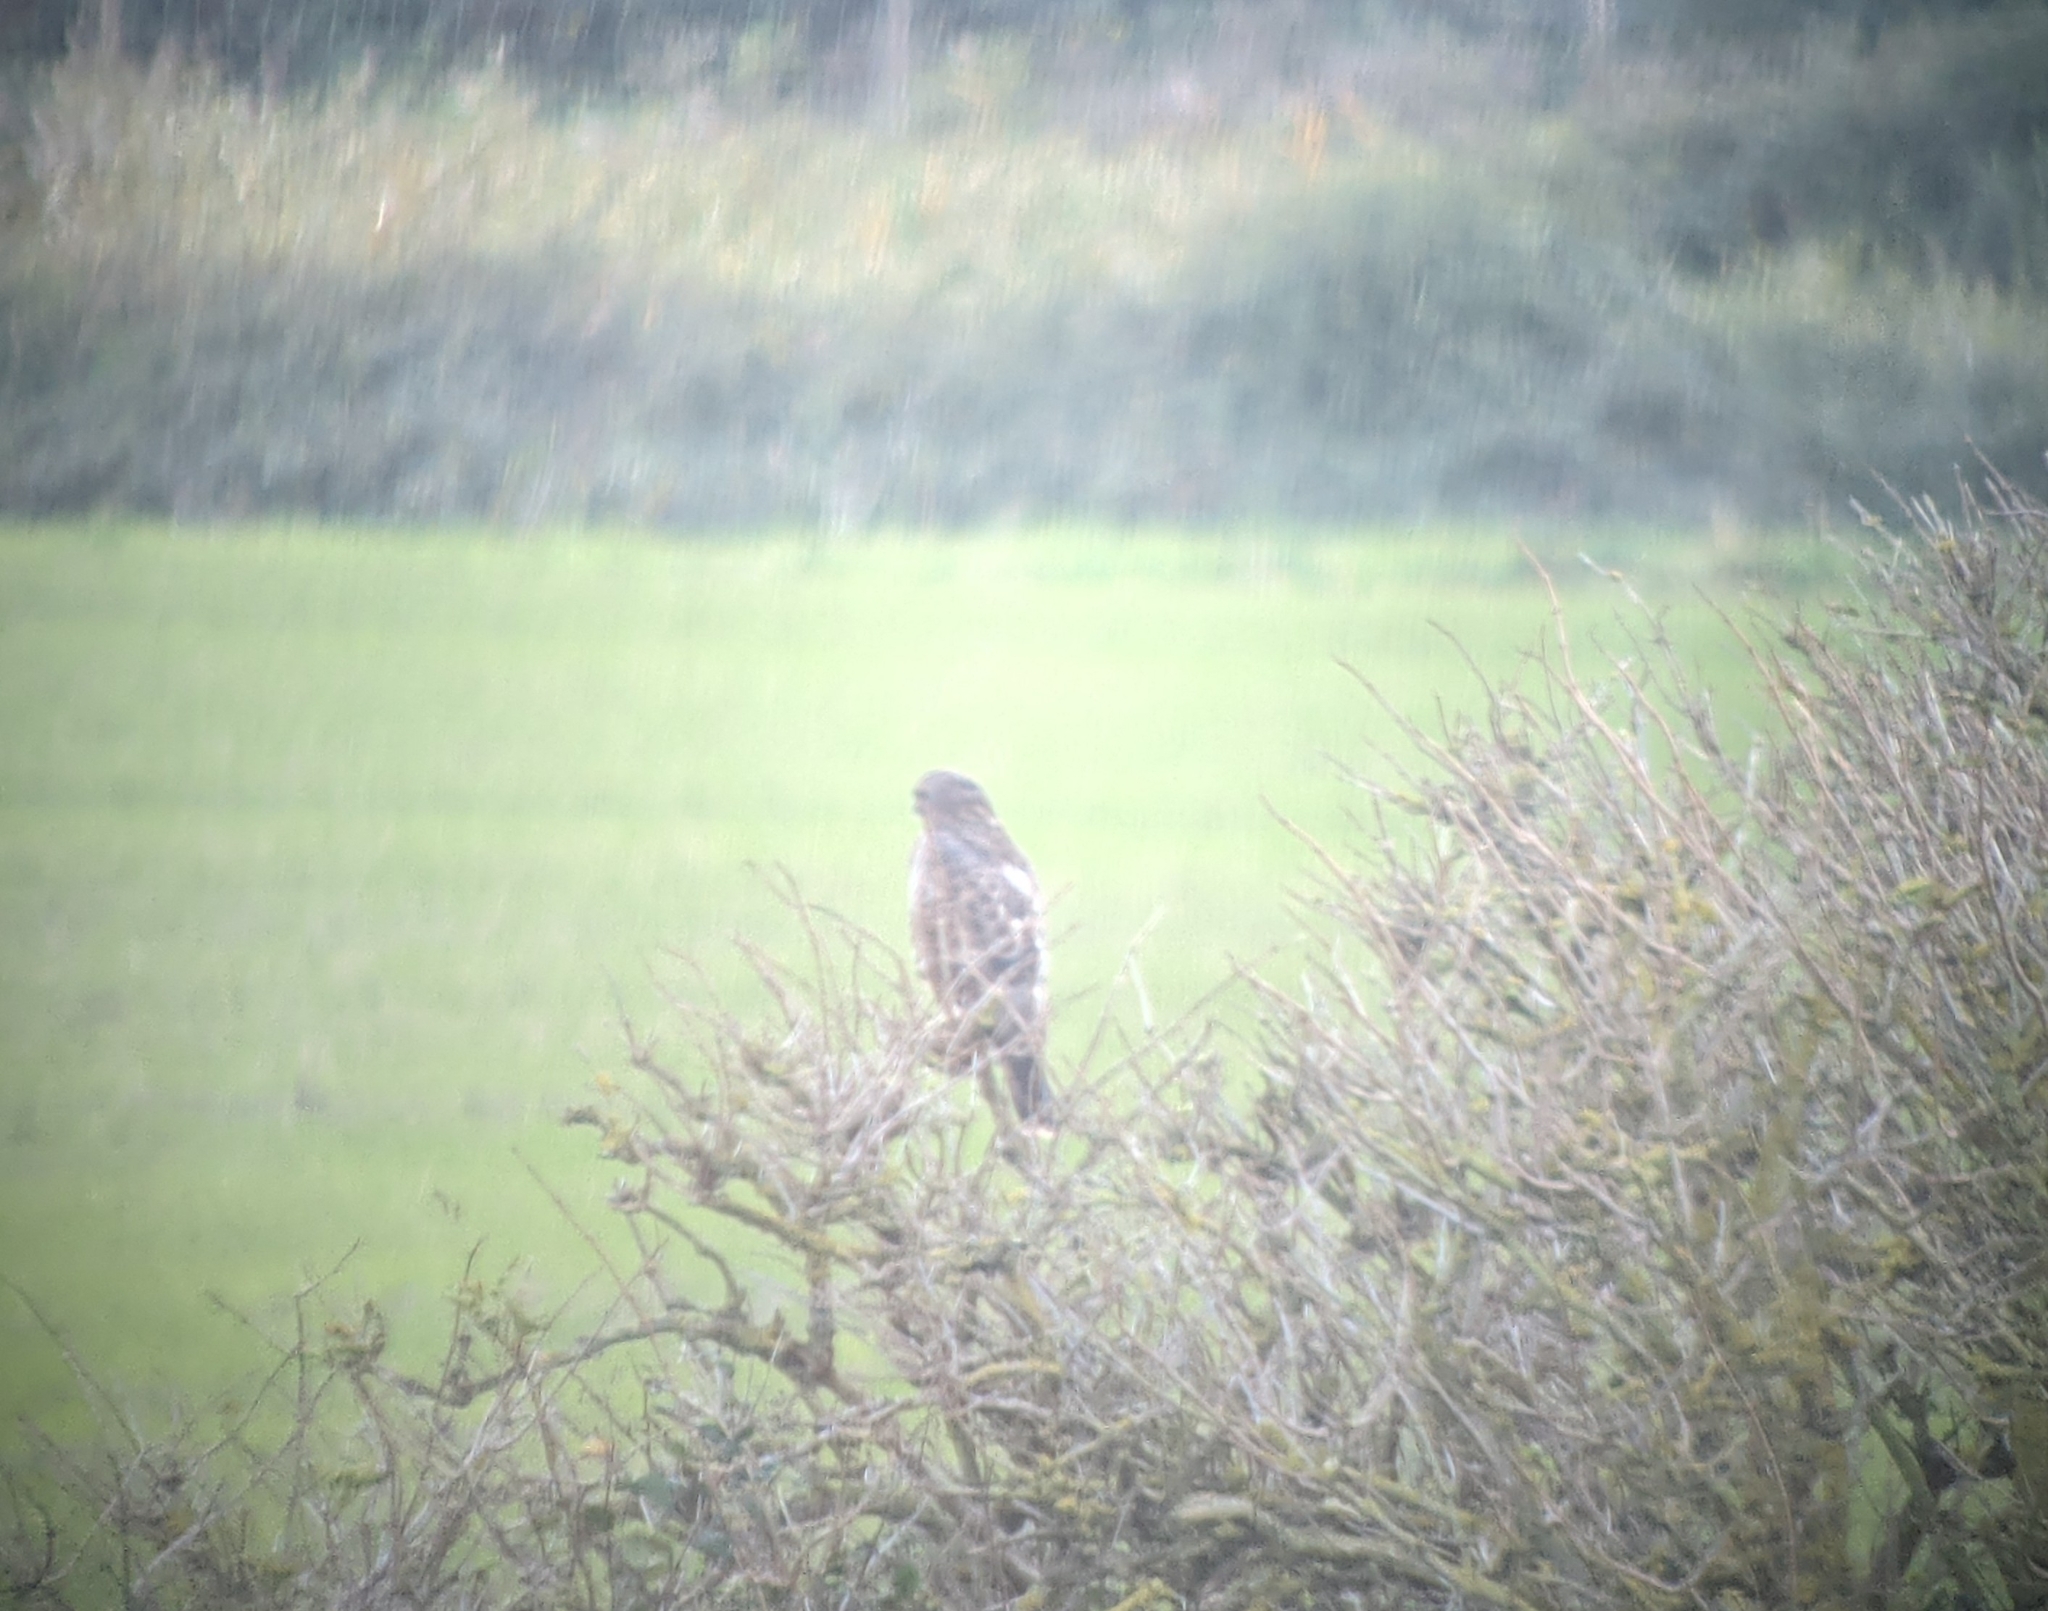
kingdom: Animalia
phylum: Chordata
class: Aves
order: Accipitriformes
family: Accipitridae
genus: Buteo
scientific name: Buteo buteo
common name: Common buzzard
